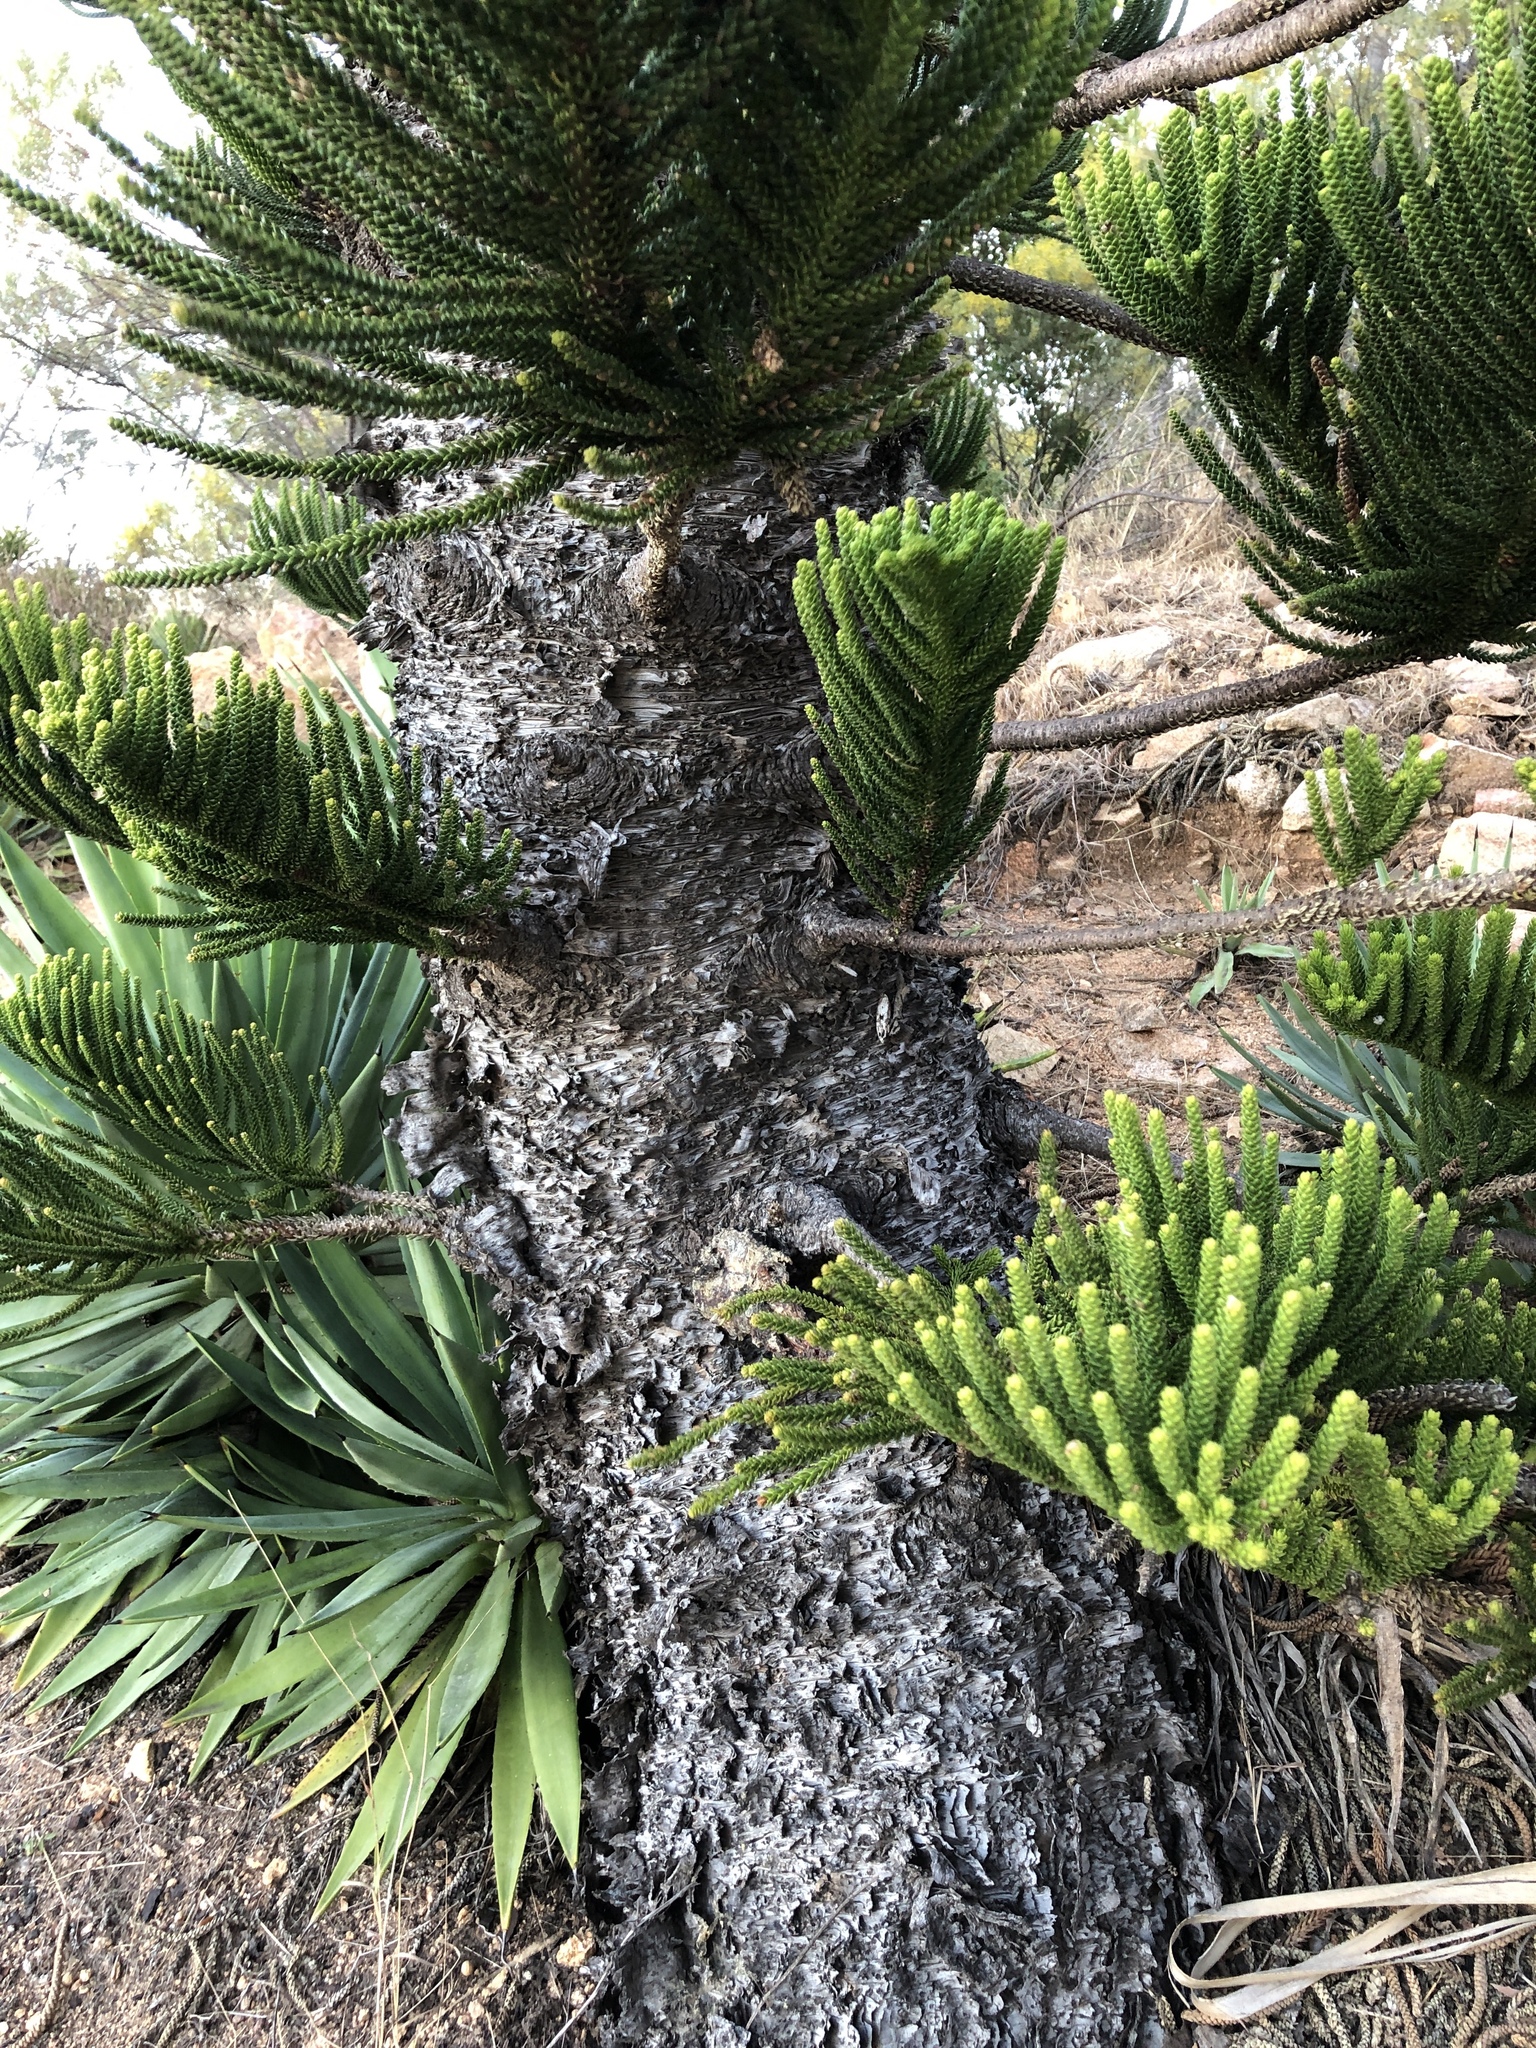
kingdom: Plantae
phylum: Tracheophyta
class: Pinopsida
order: Pinales
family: Araucariaceae
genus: Araucaria
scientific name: Araucaria cunninghamii
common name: Colonial pine
